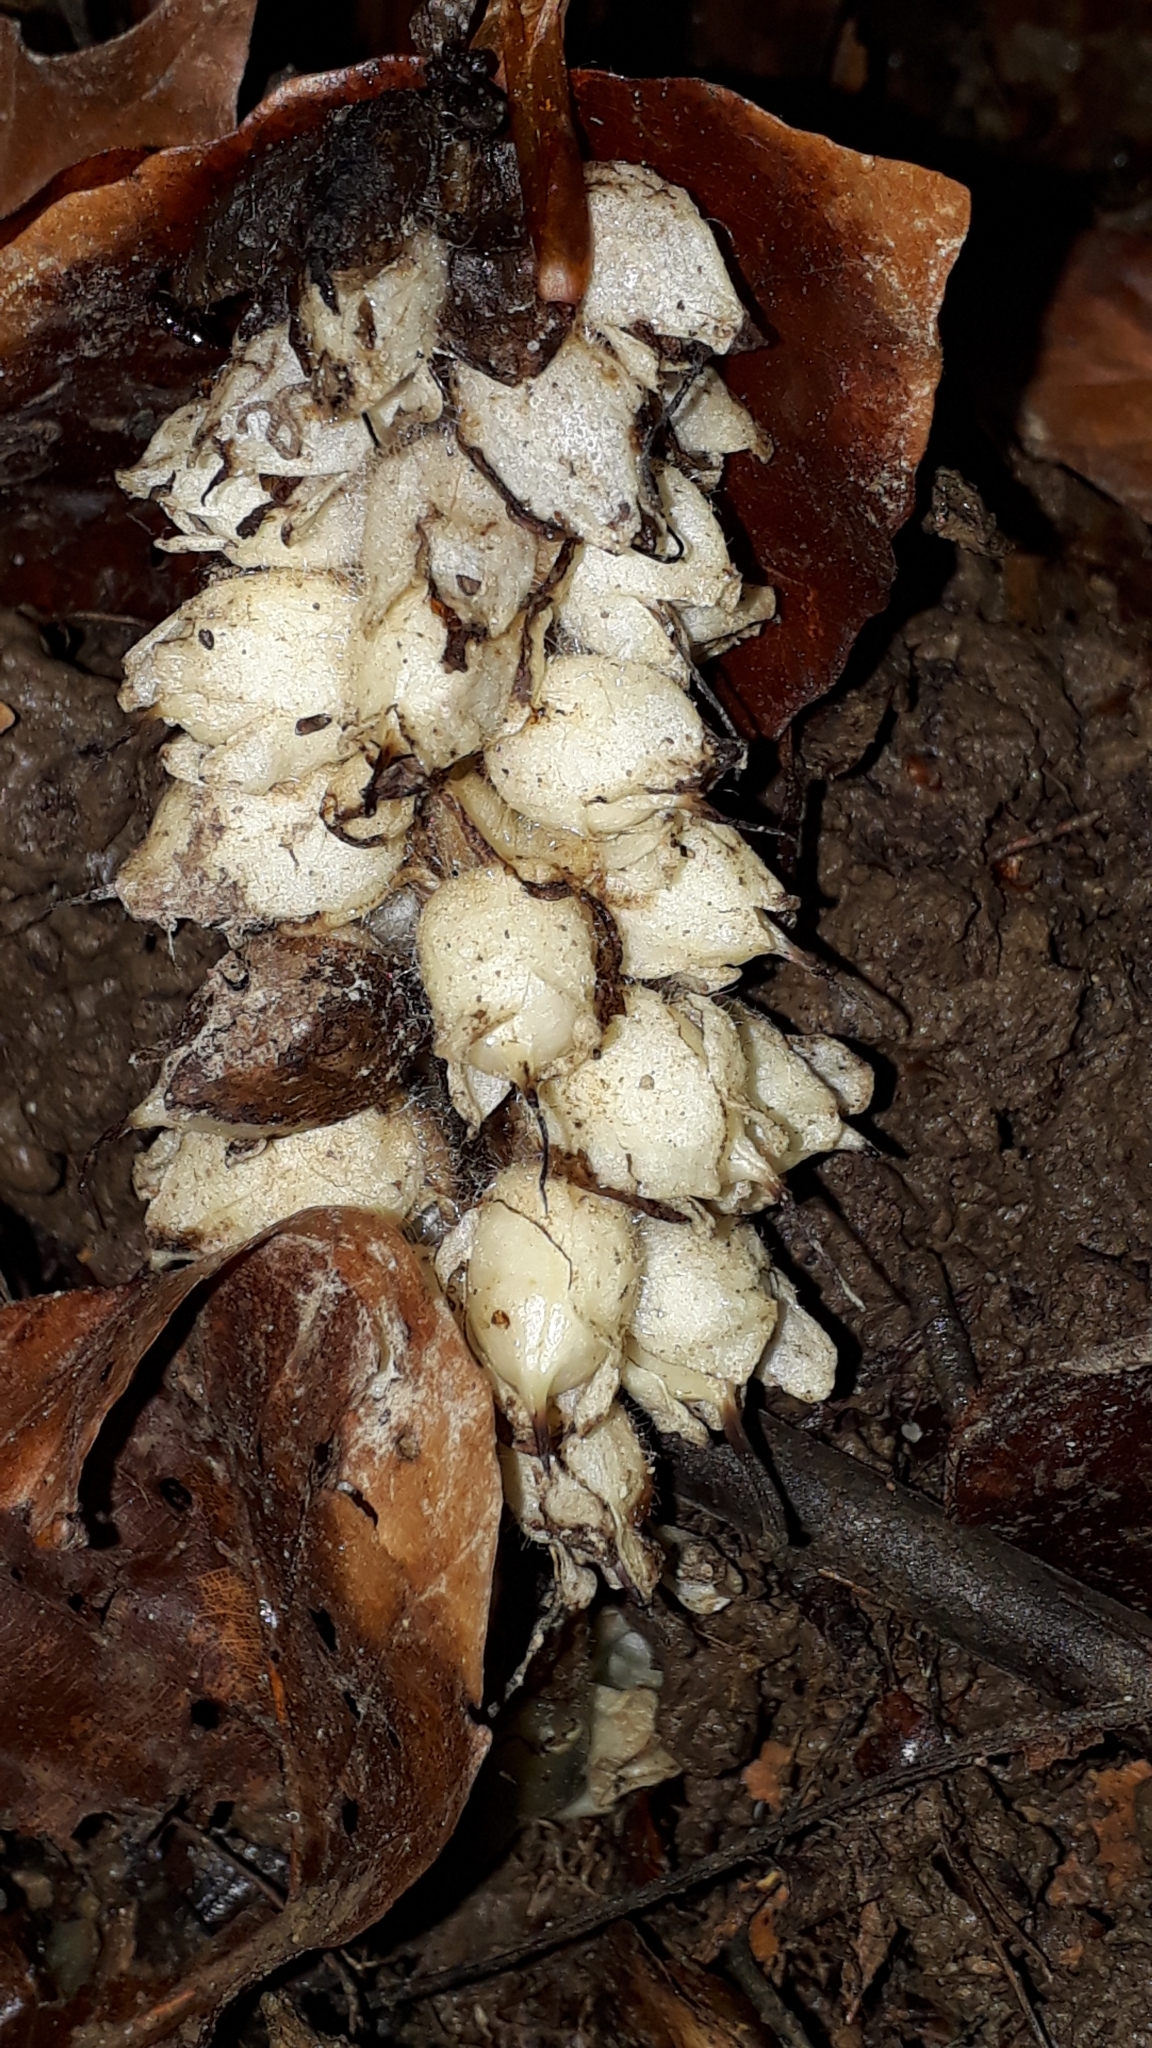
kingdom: Plantae
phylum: Tracheophyta
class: Magnoliopsida
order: Lamiales
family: Orobanchaceae
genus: Lathraea
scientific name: Lathraea squamaria
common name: Toothwort
